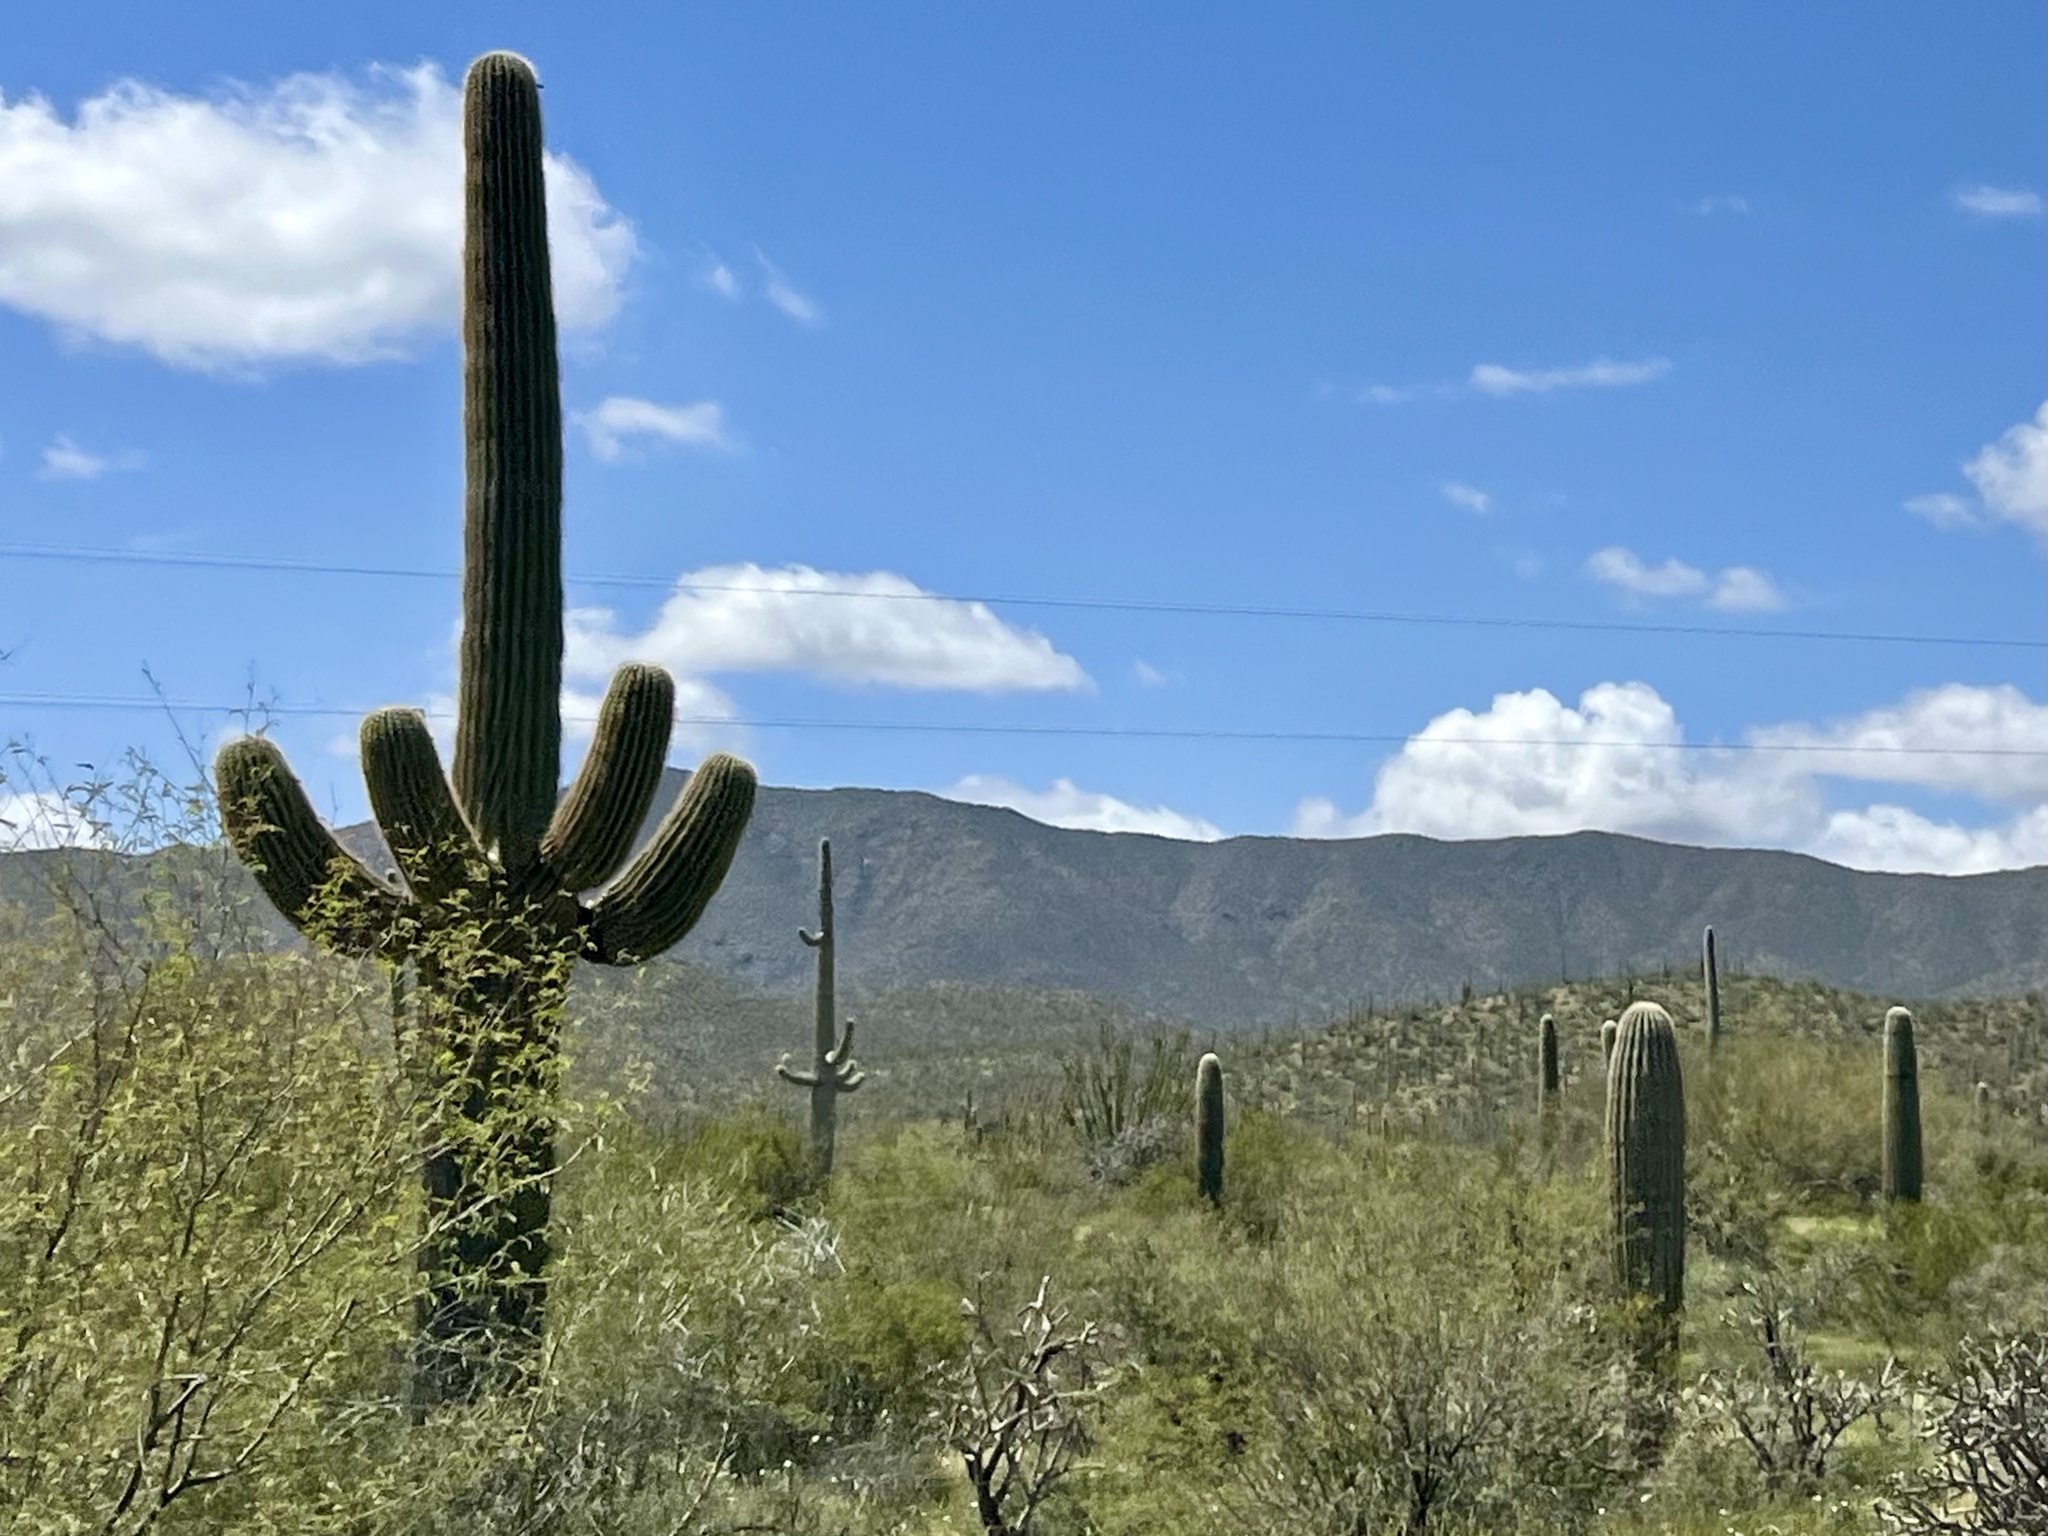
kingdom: Plantae
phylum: Tracheophyta
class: Magnoliopsida
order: Caryophyllales
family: Cactaceae
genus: Carnegiea
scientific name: Carnegiea gigantea
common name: Saguaro
